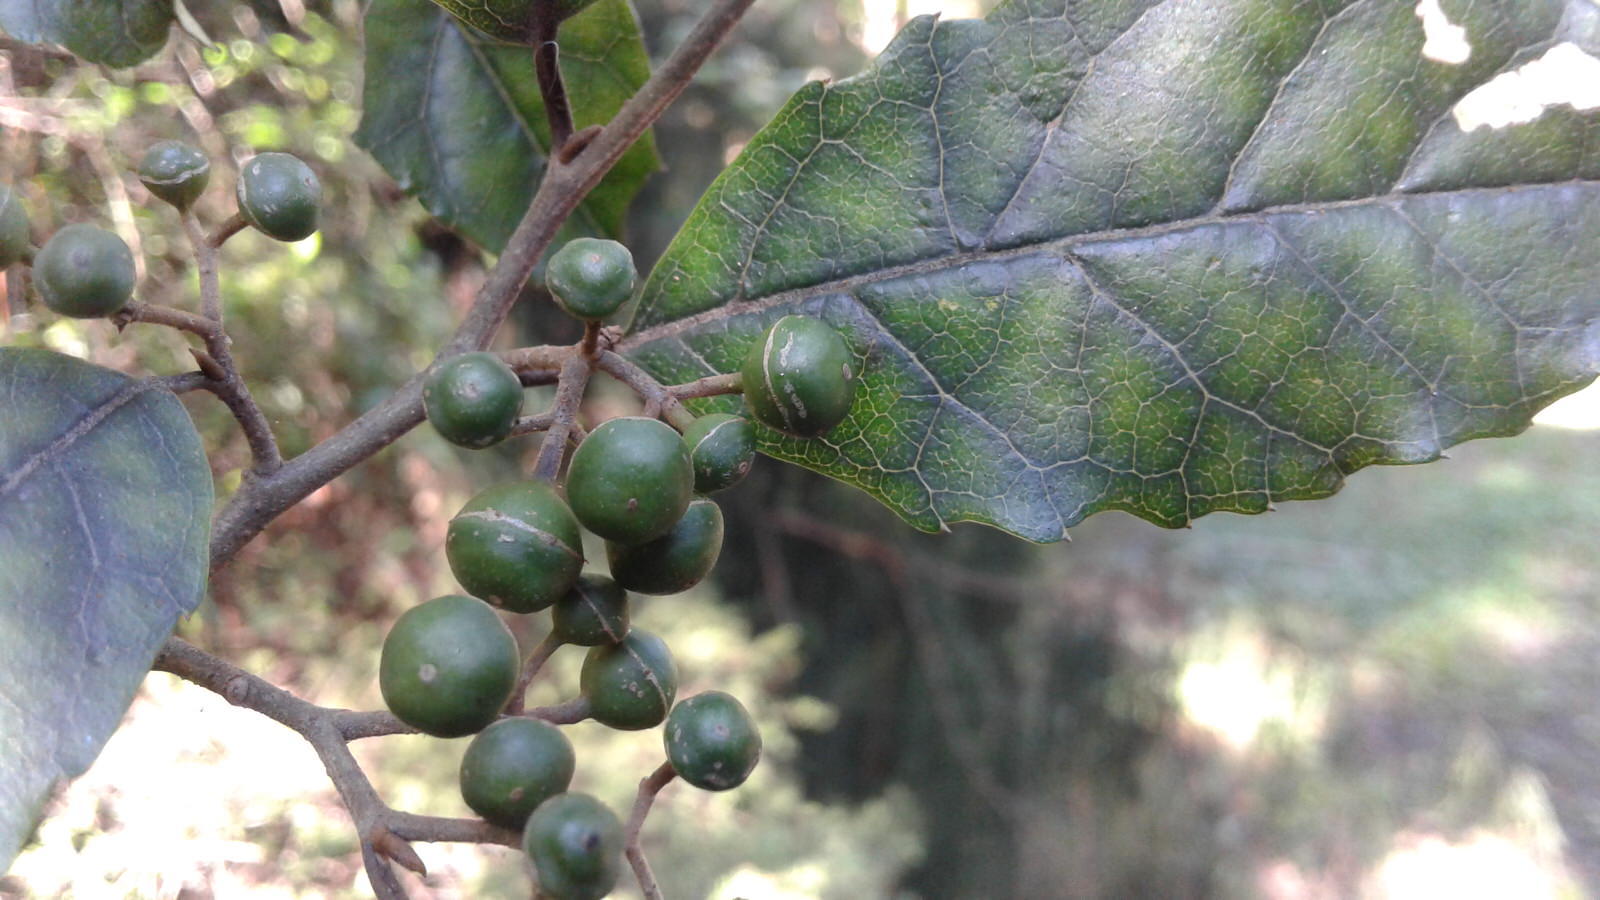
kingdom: Plantae
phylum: Tracheophyta
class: Magnoliopsida
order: Asterales
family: Rousseaceae
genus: Carpodetus
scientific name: Carpodetus serratus
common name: White mapau
